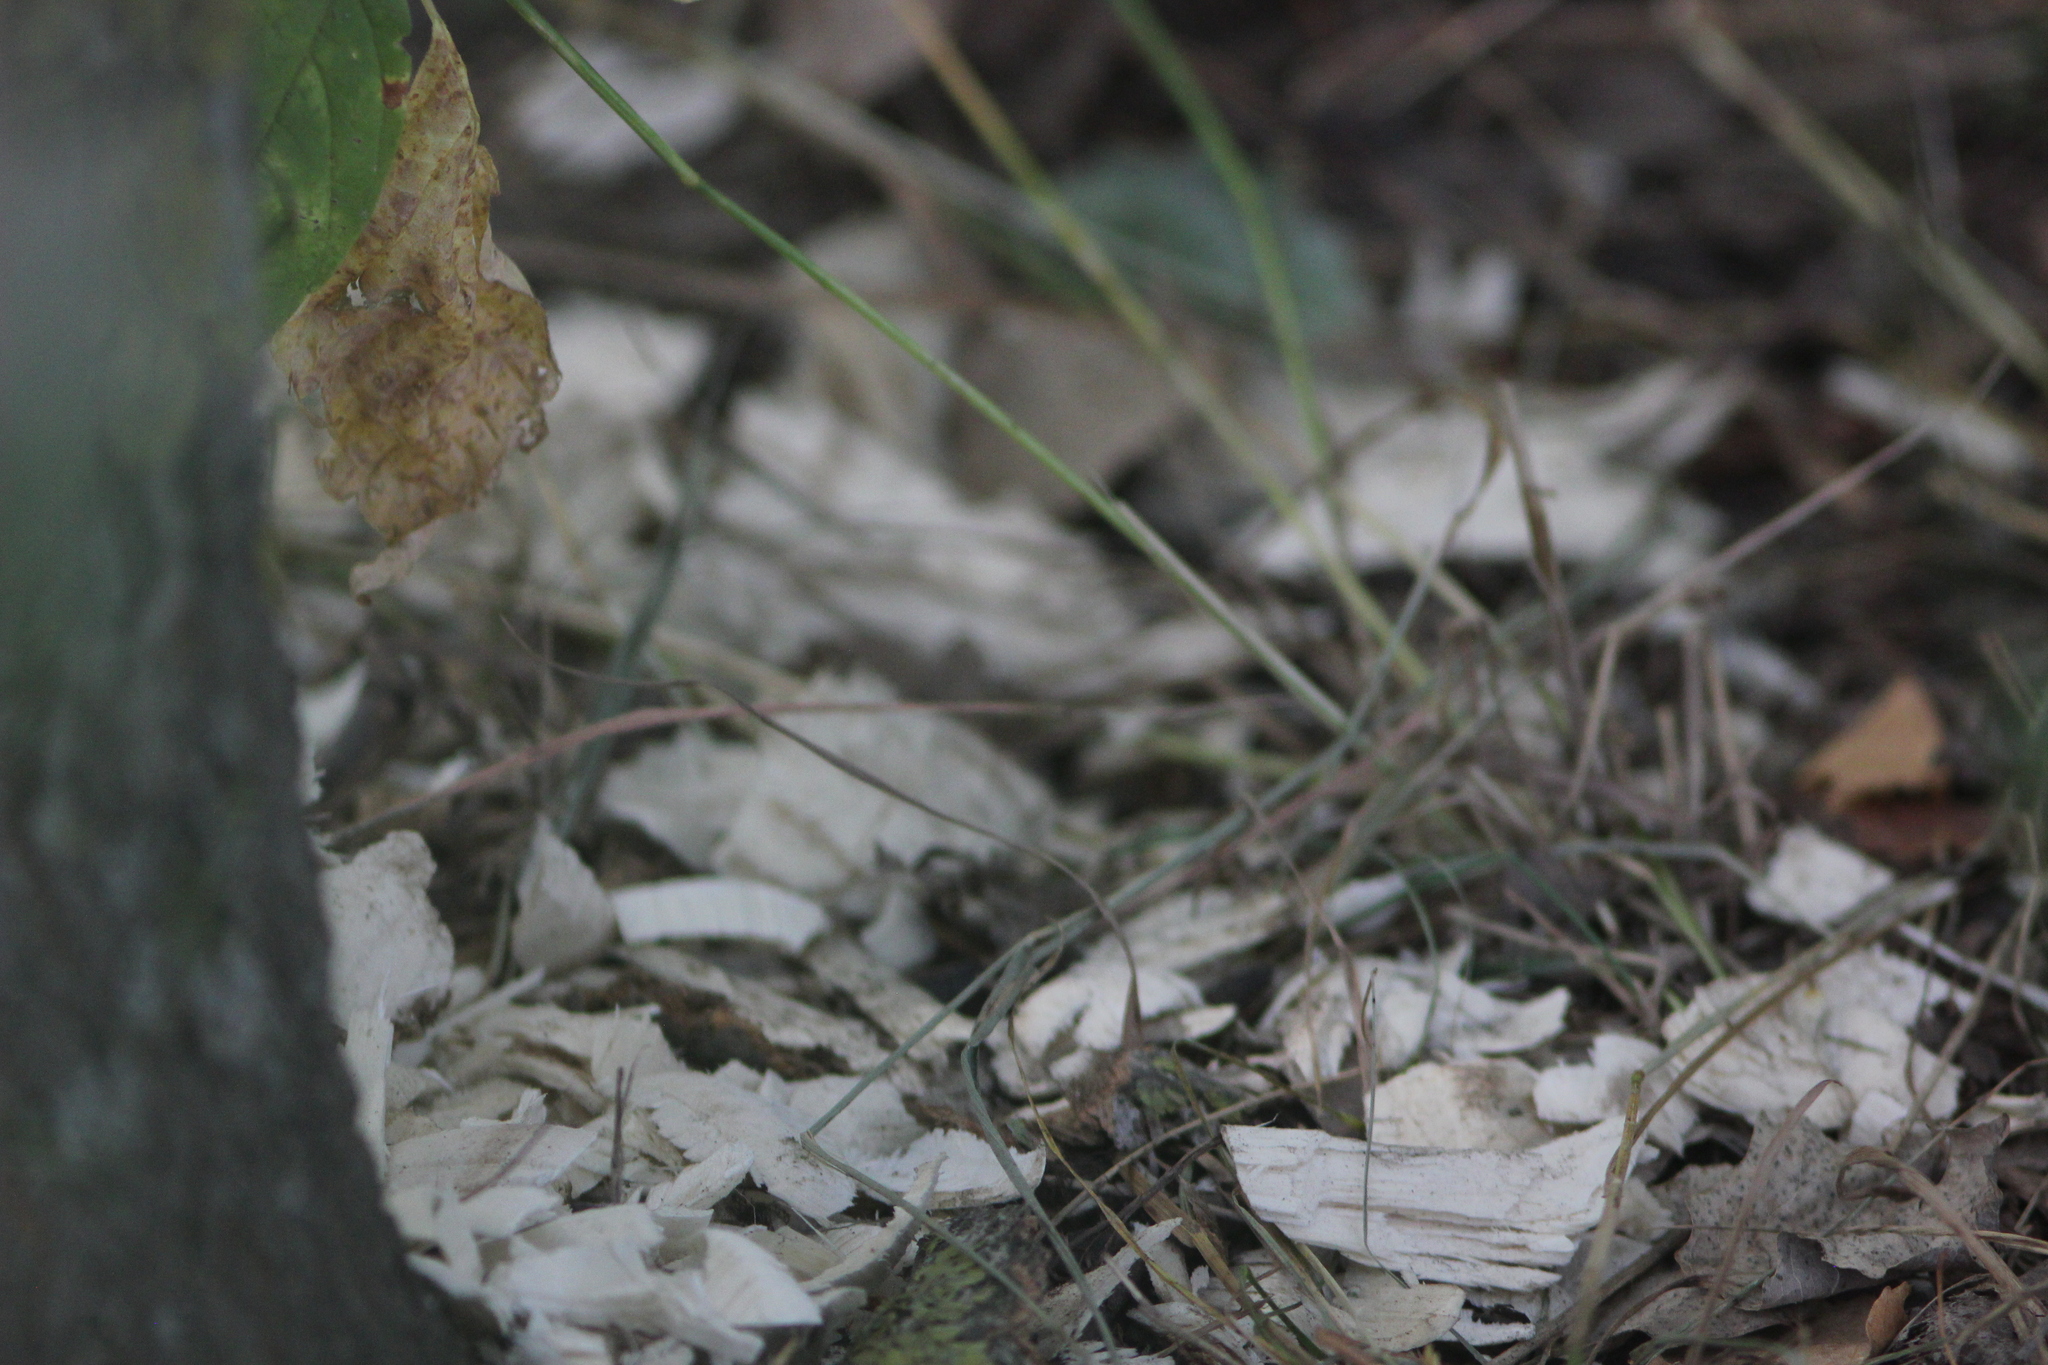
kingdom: Animalia
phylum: Chordata
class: Mammalia
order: Rodentia
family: Castoridae
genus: Castor
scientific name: Castor fiber
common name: Eurasian beaver
